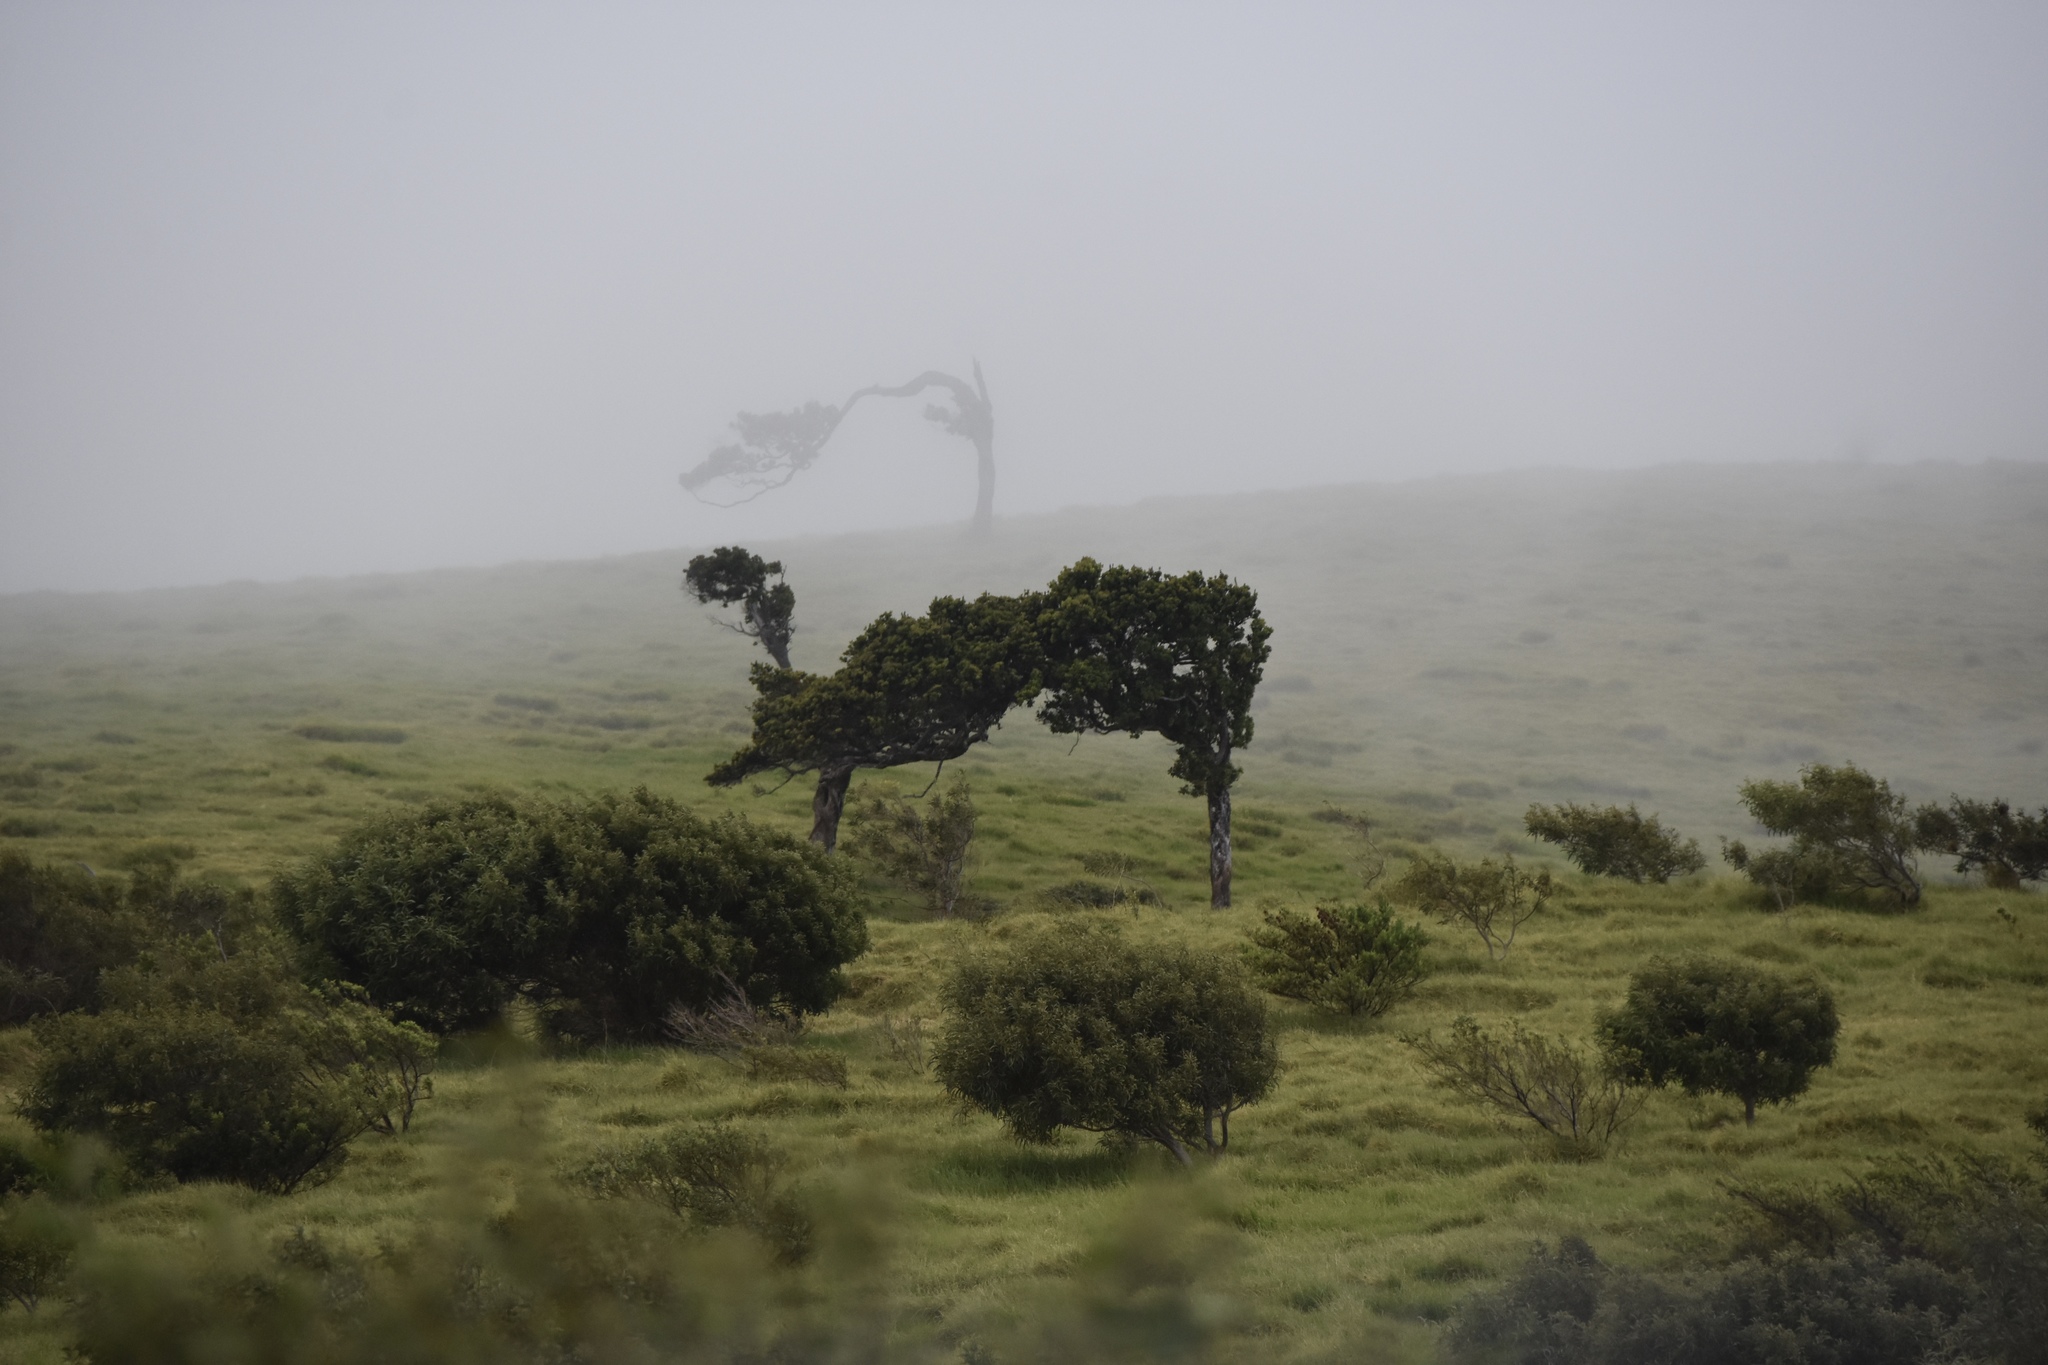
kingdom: Plantae
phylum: Tracheophyta
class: Magnoliopsida
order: Myrtales
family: Myrtaceae
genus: Metrosideros
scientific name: Metrosideros polymorpha
